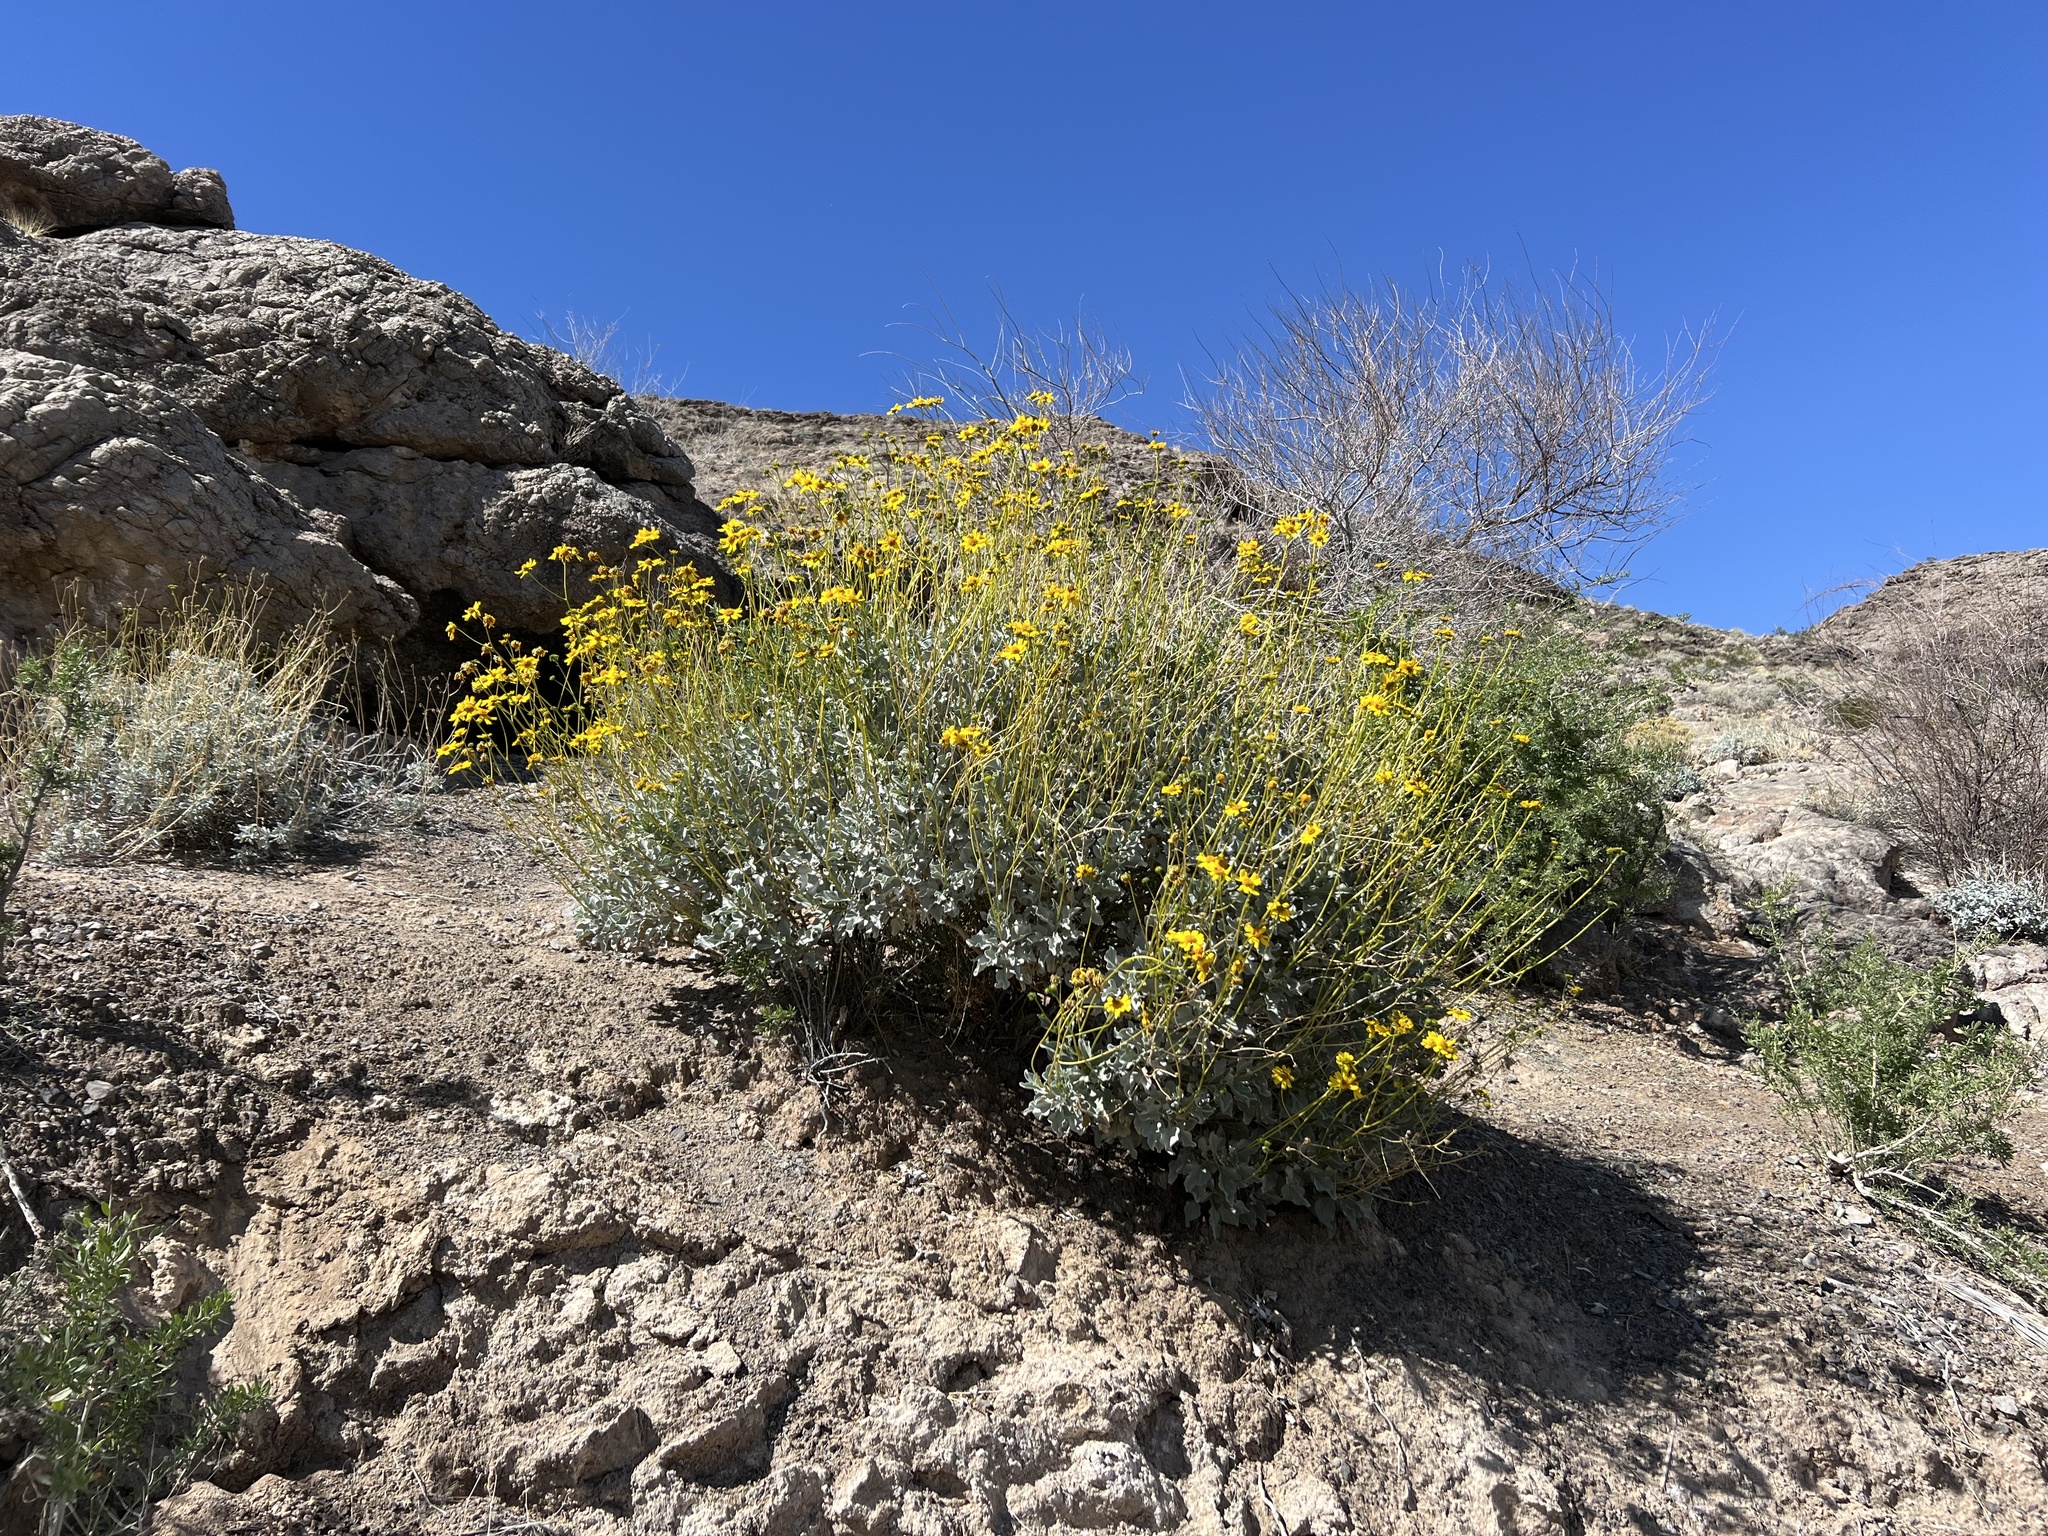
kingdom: Plantae
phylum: Tracheophyta
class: Magnoliopsida
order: Asterales
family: Asteraceae
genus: Encelia
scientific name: Encelia farinosa
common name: Brittlebush
